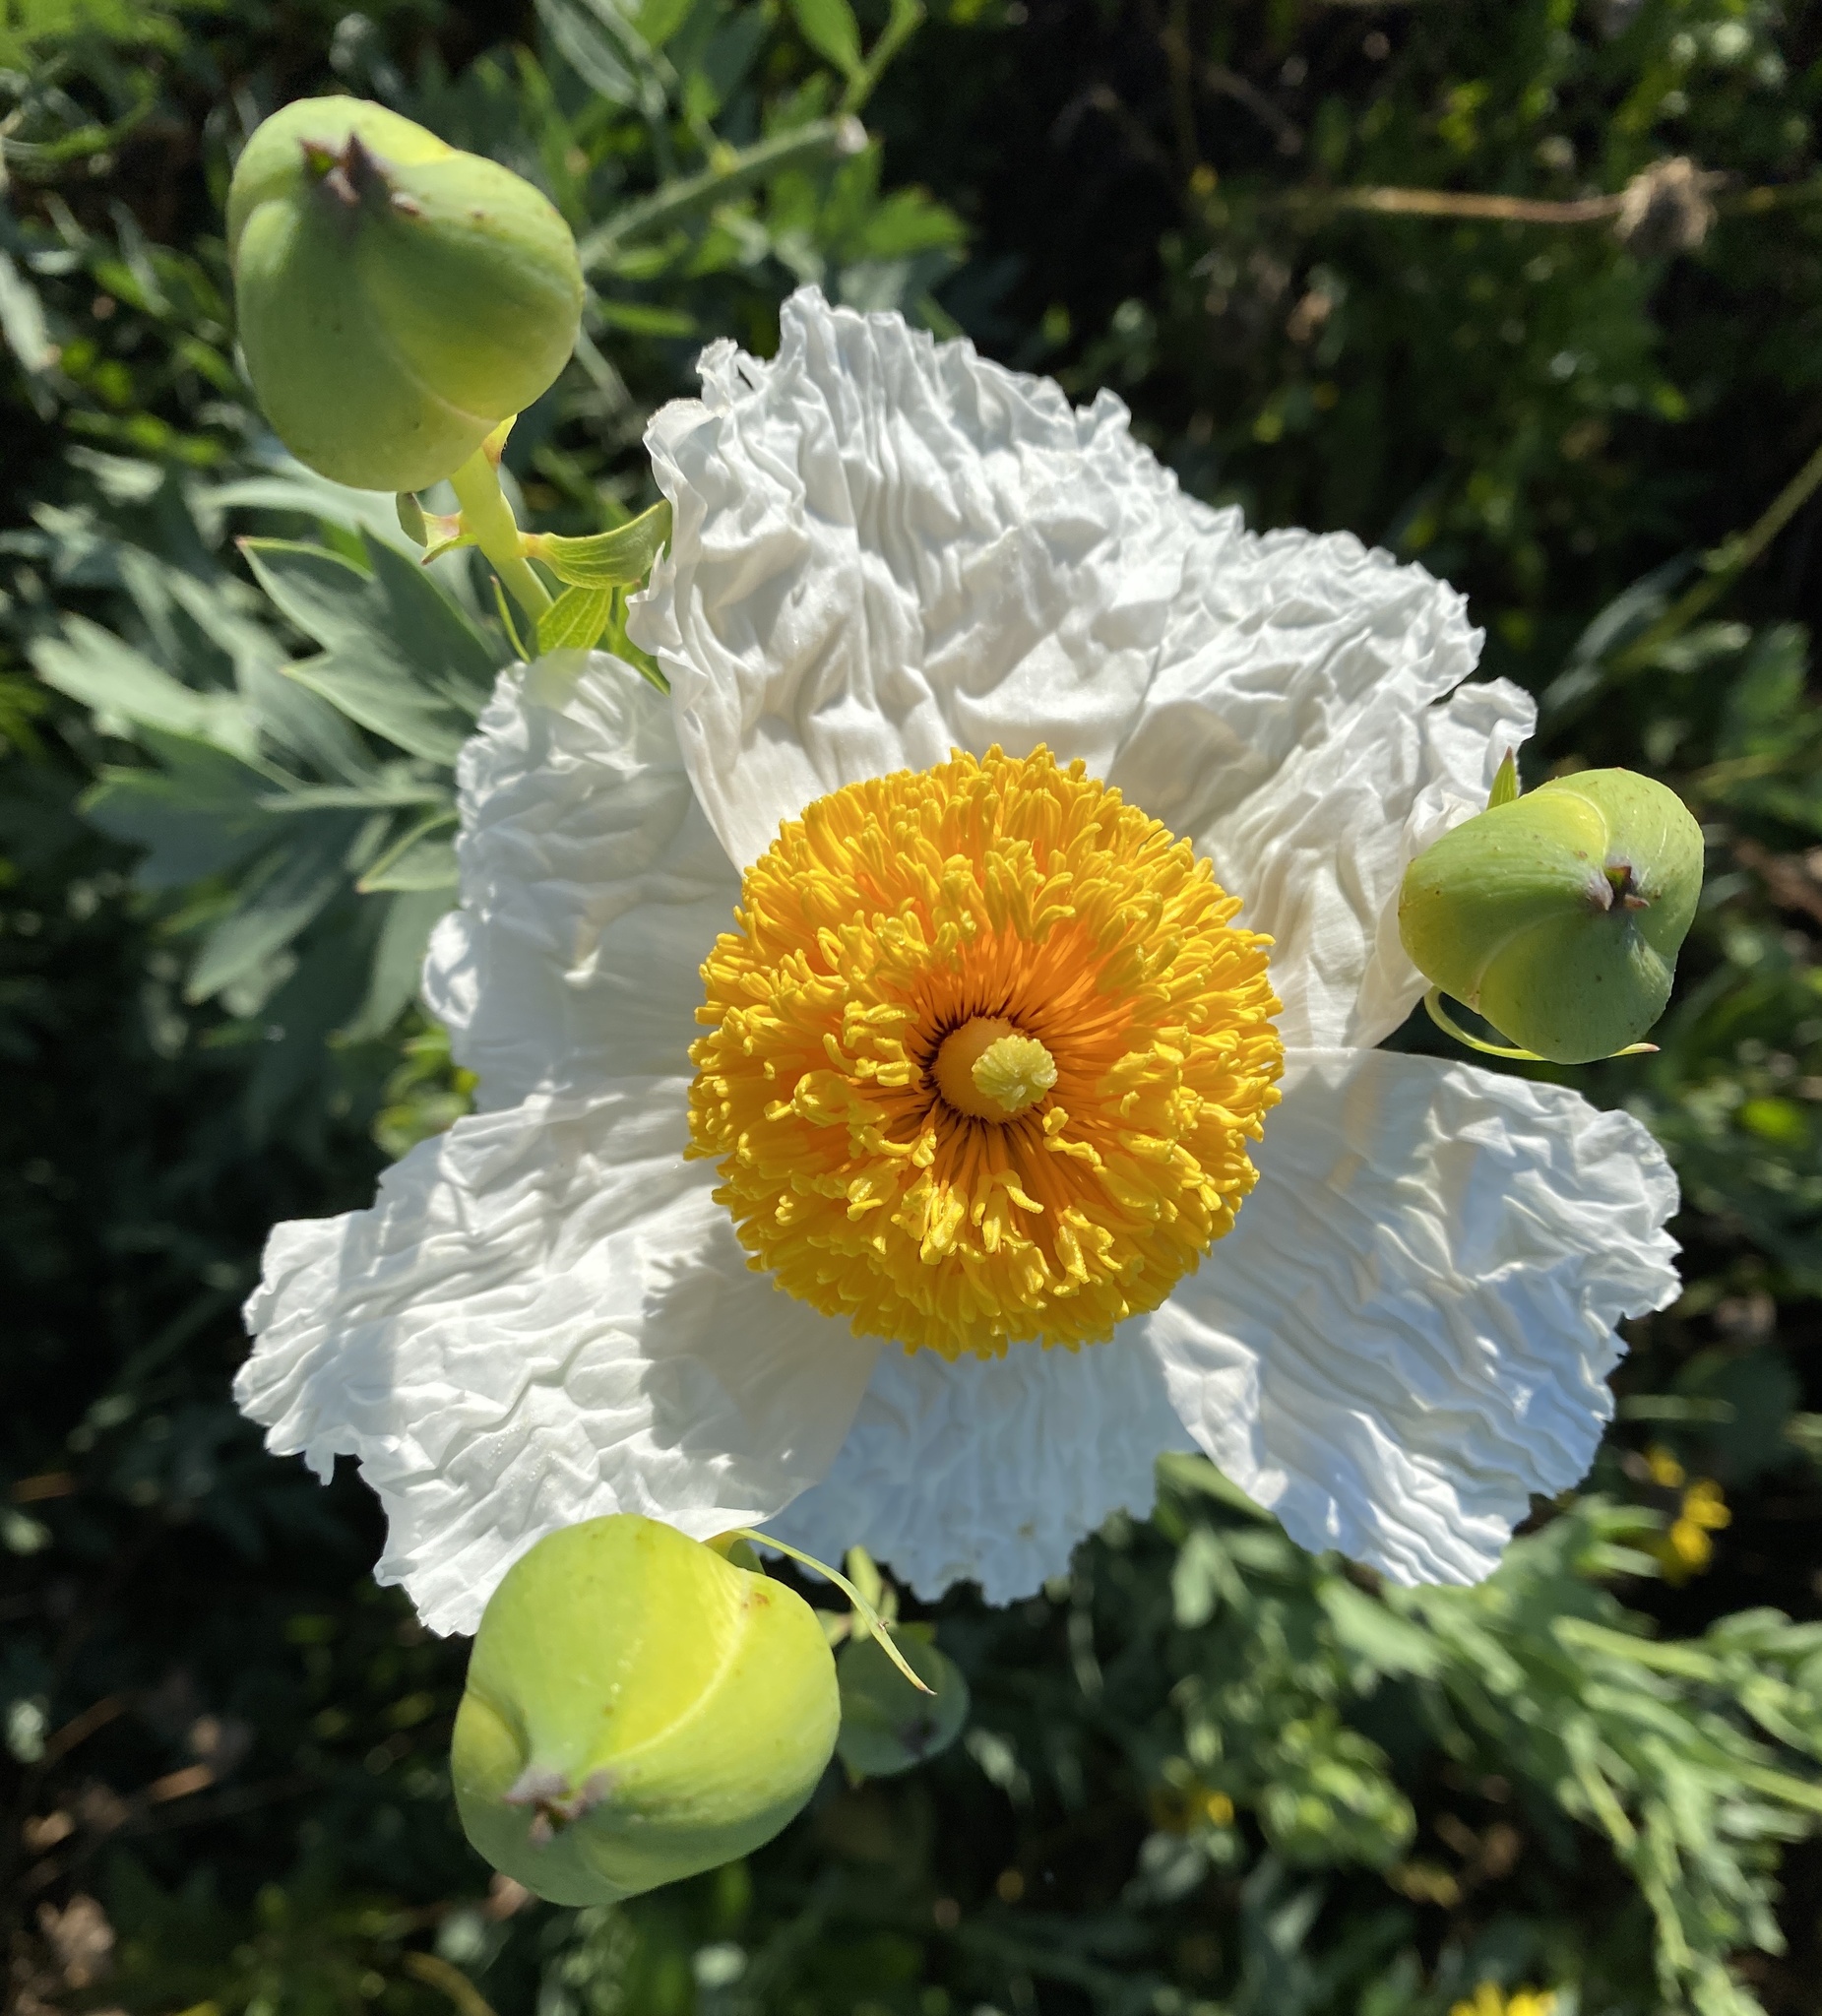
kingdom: Plantae
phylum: Tracheophyta
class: Magnoliopsida
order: Ranunculales
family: Papaveraceae
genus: Romneya
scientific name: Romneya coulteri
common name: California tree-poppy
